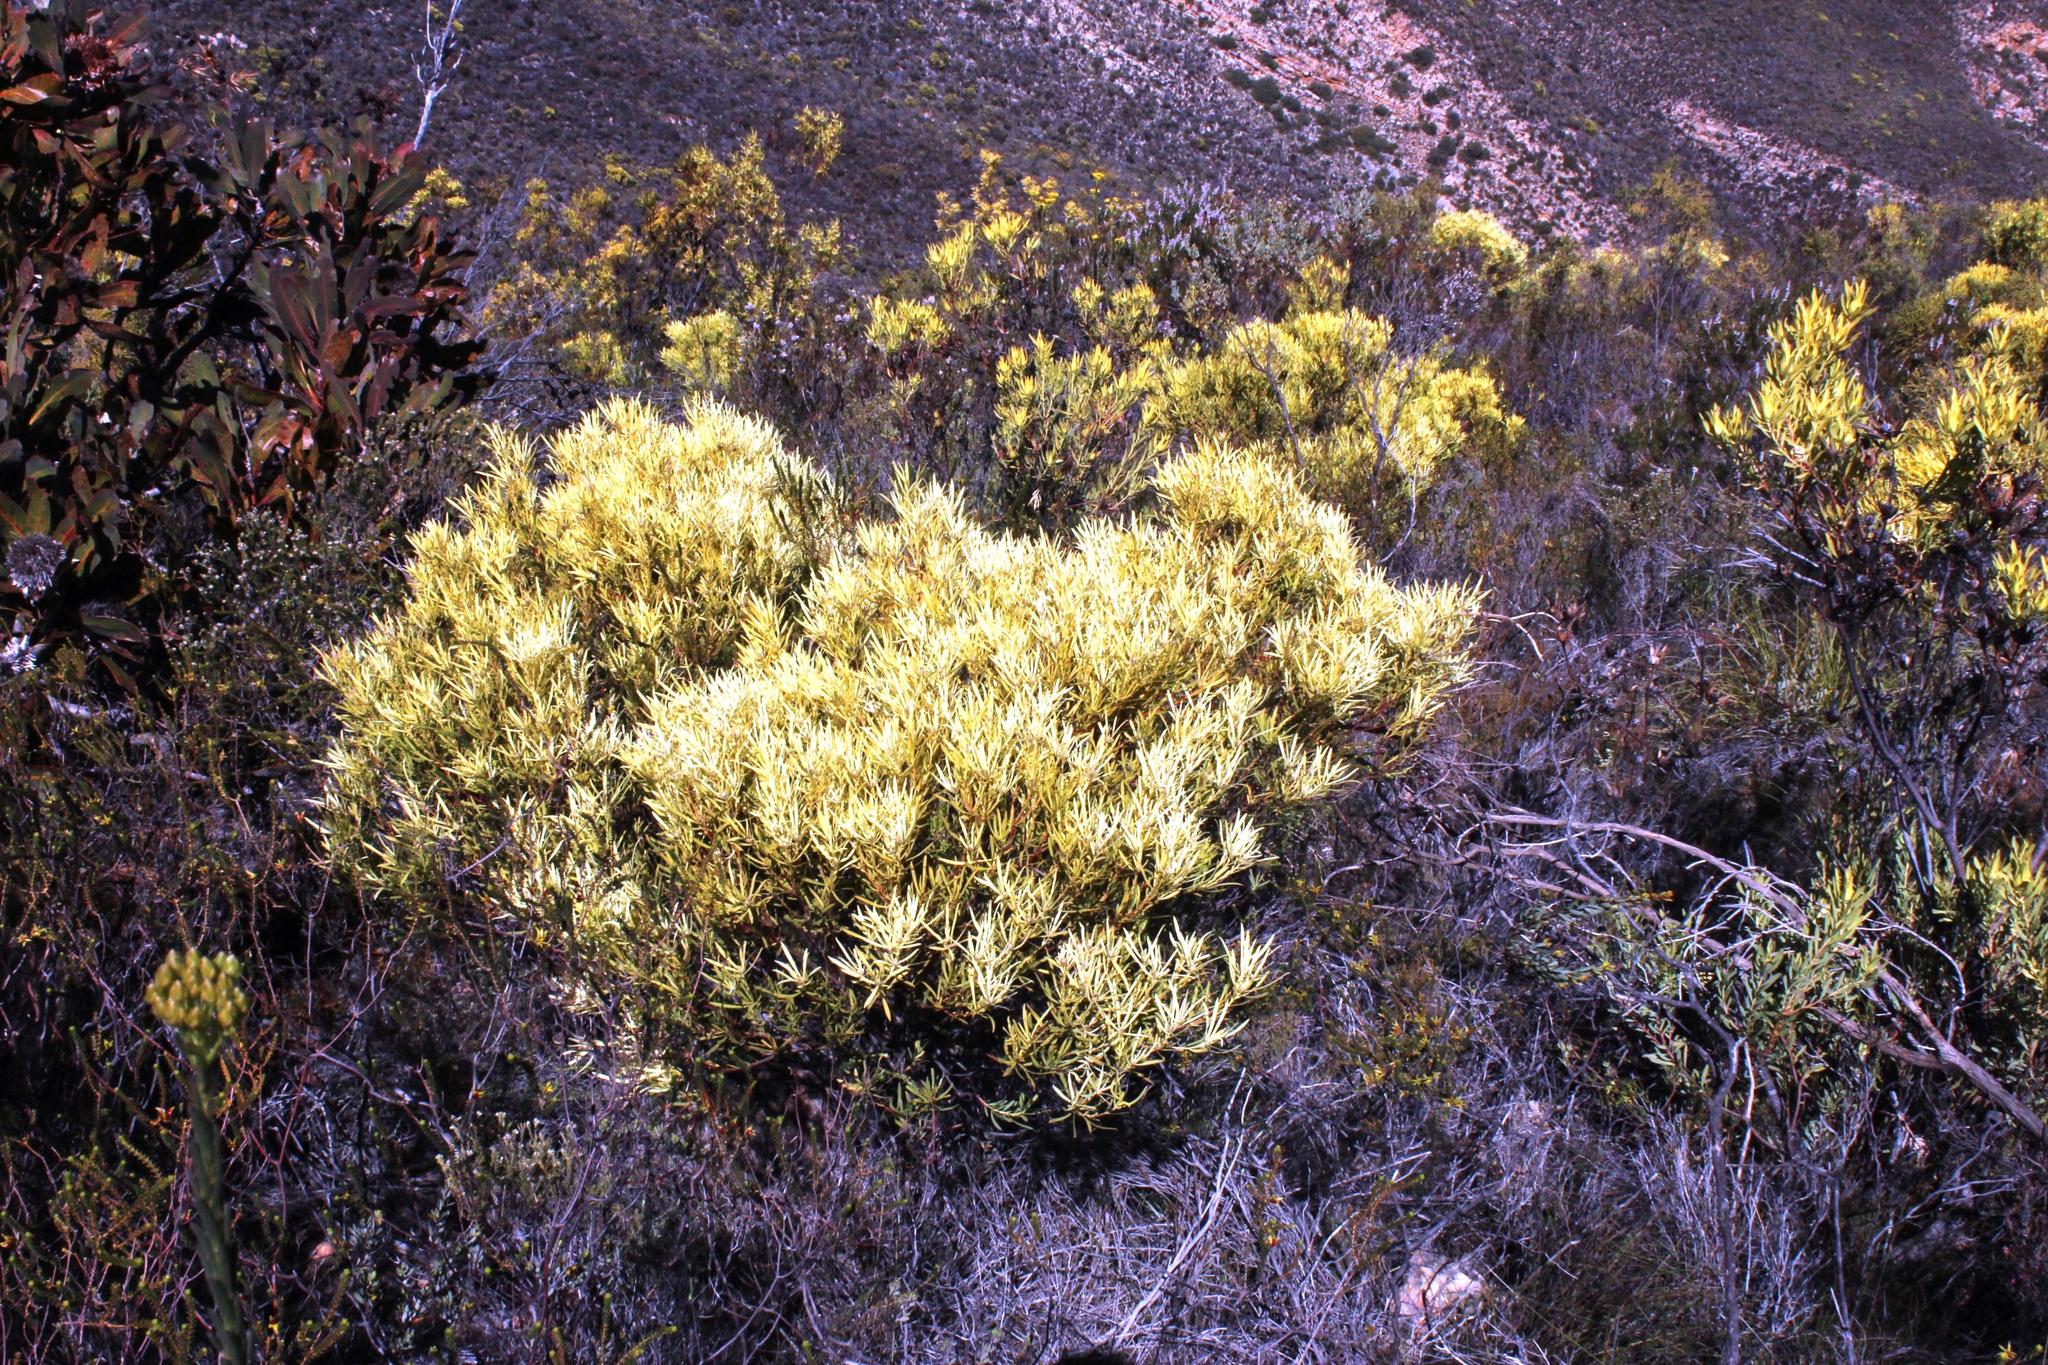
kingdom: Plantae
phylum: Tracheophyta
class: Magnoliopsida
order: Proteales
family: Proteaceae
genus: Leucadendron
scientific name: Leucadendron salignum
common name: Common sunshine conebush
